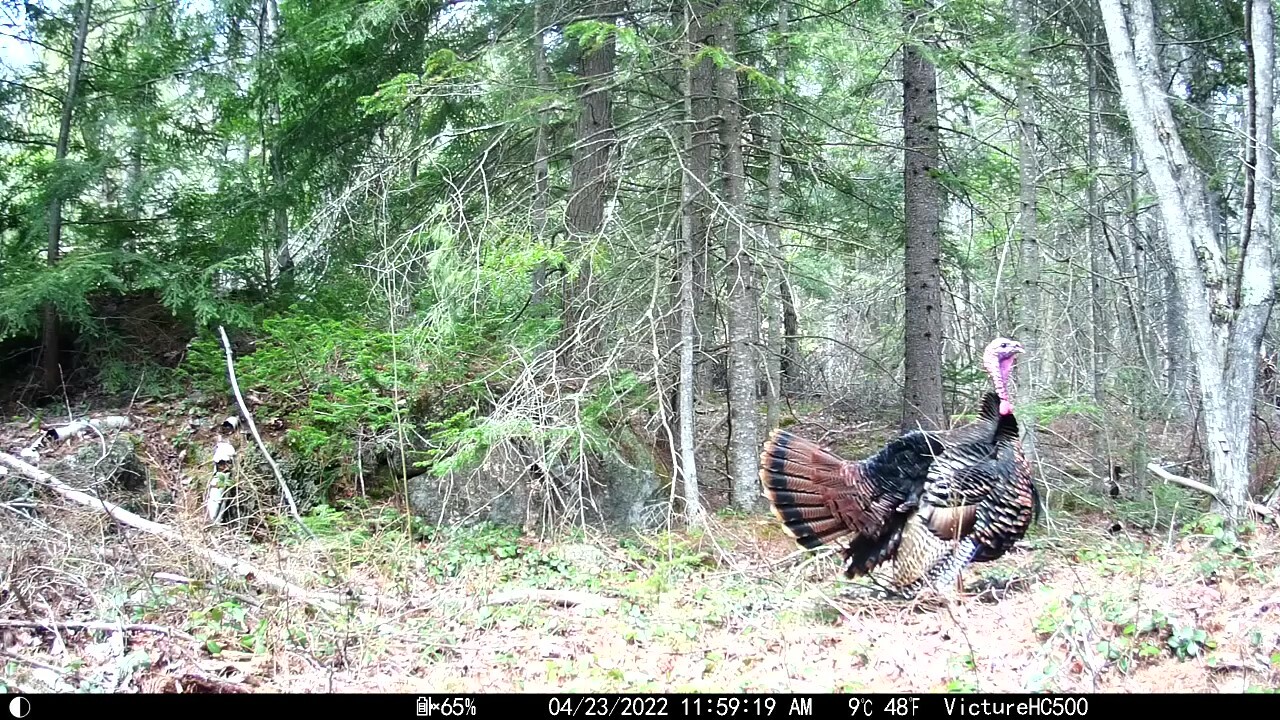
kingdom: Animalia
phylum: Chordata
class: Aves
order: Galliformes
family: Phasianidae
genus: Meleagris
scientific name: Meleagris gallopavo
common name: Wild turkey
